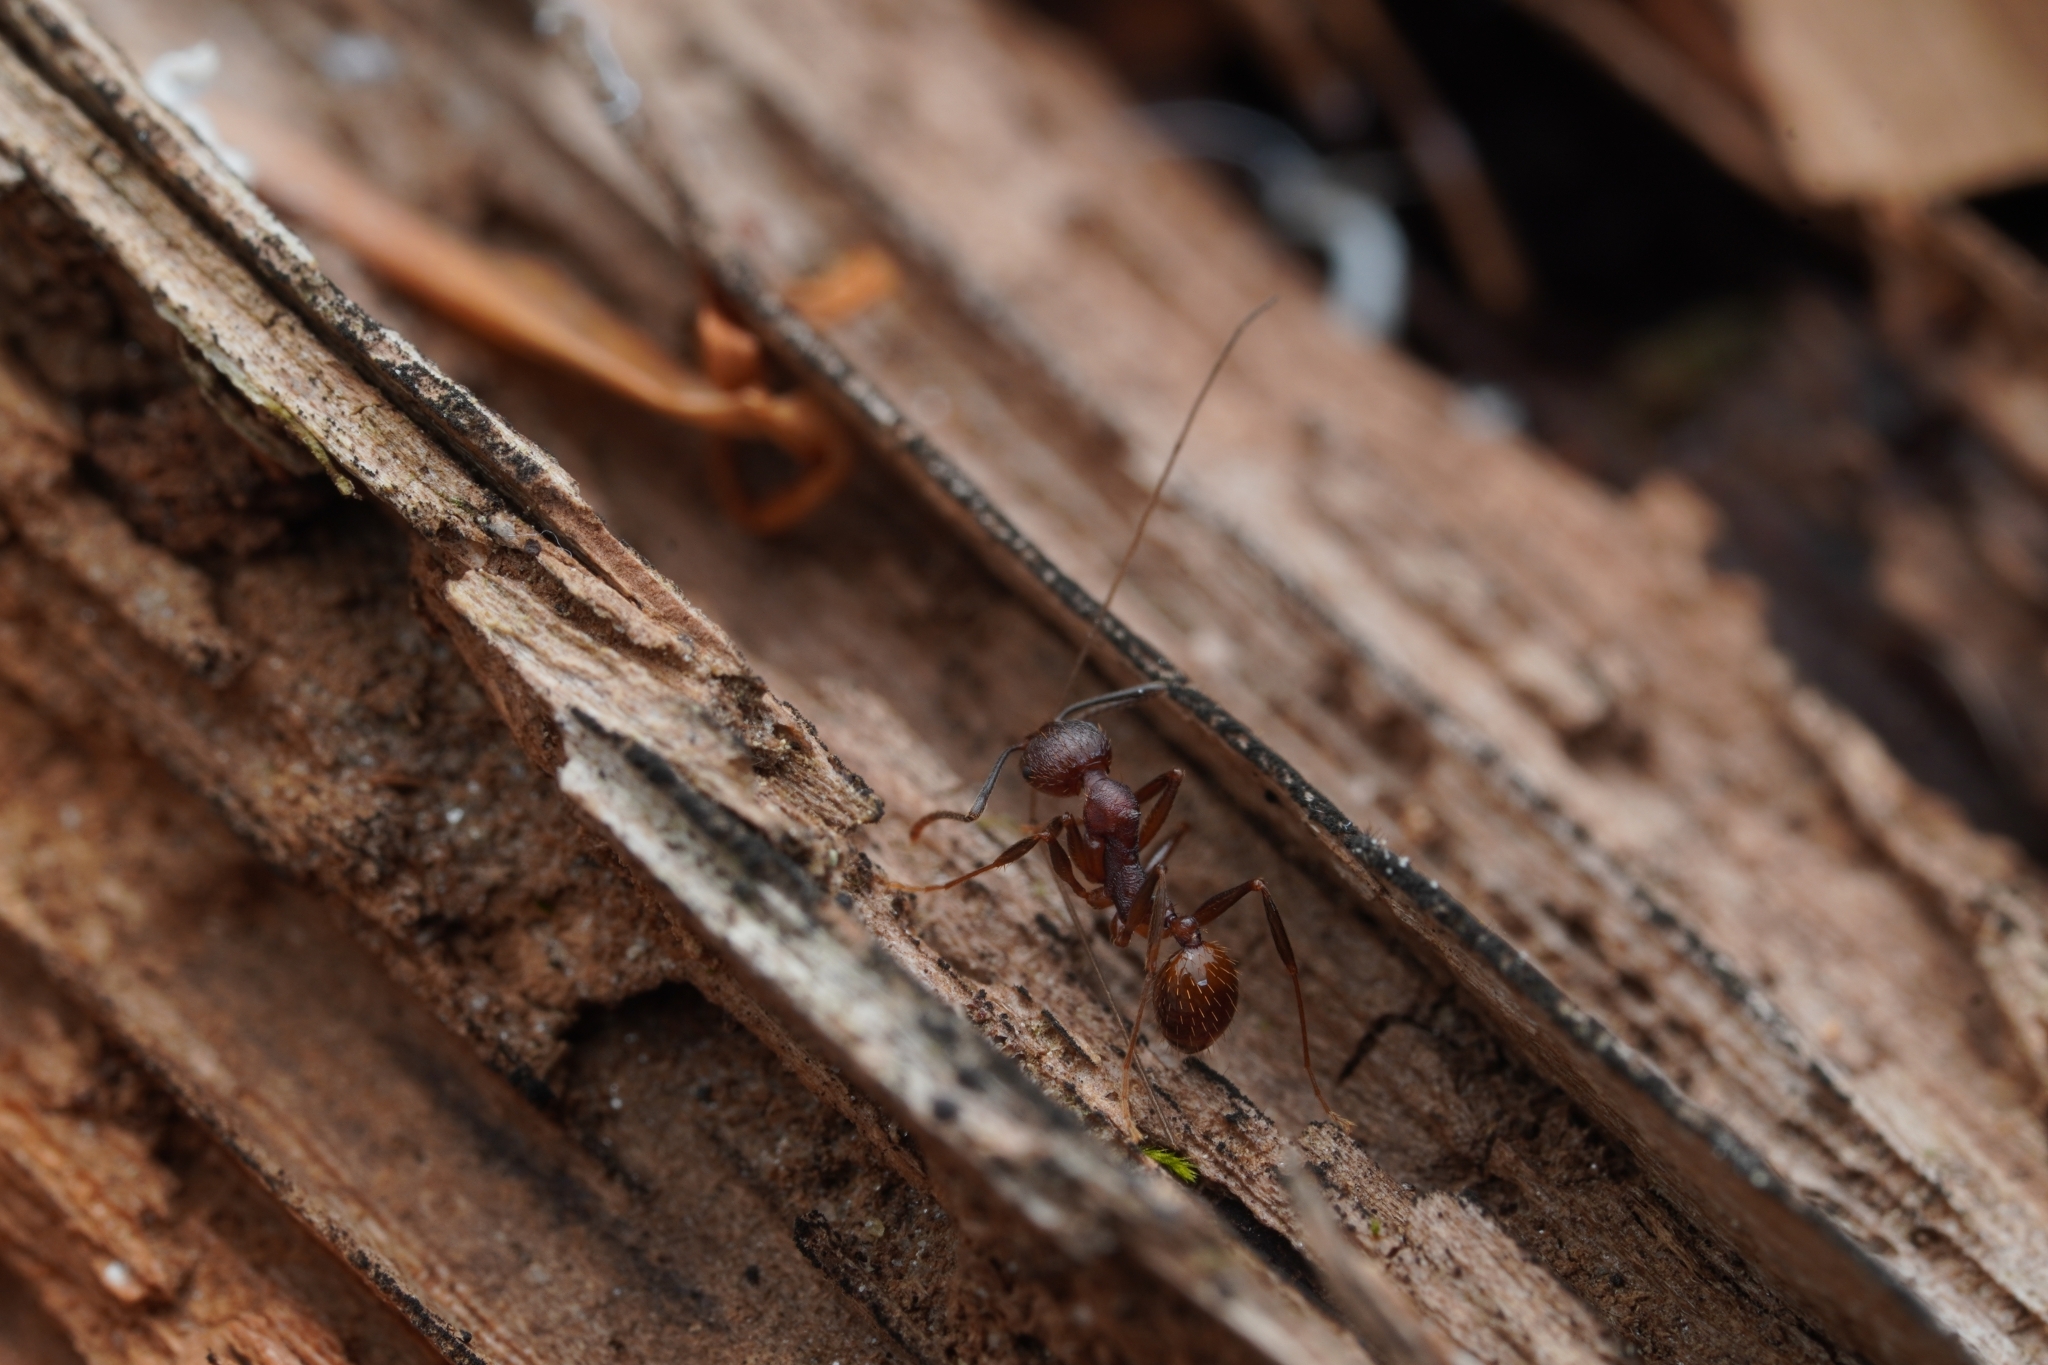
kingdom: Animalia
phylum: Arthropoda
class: Insecta
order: Hymenoptera
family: Formicidae
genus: Aphaenogaster
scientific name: Aphaenogaster fulva
